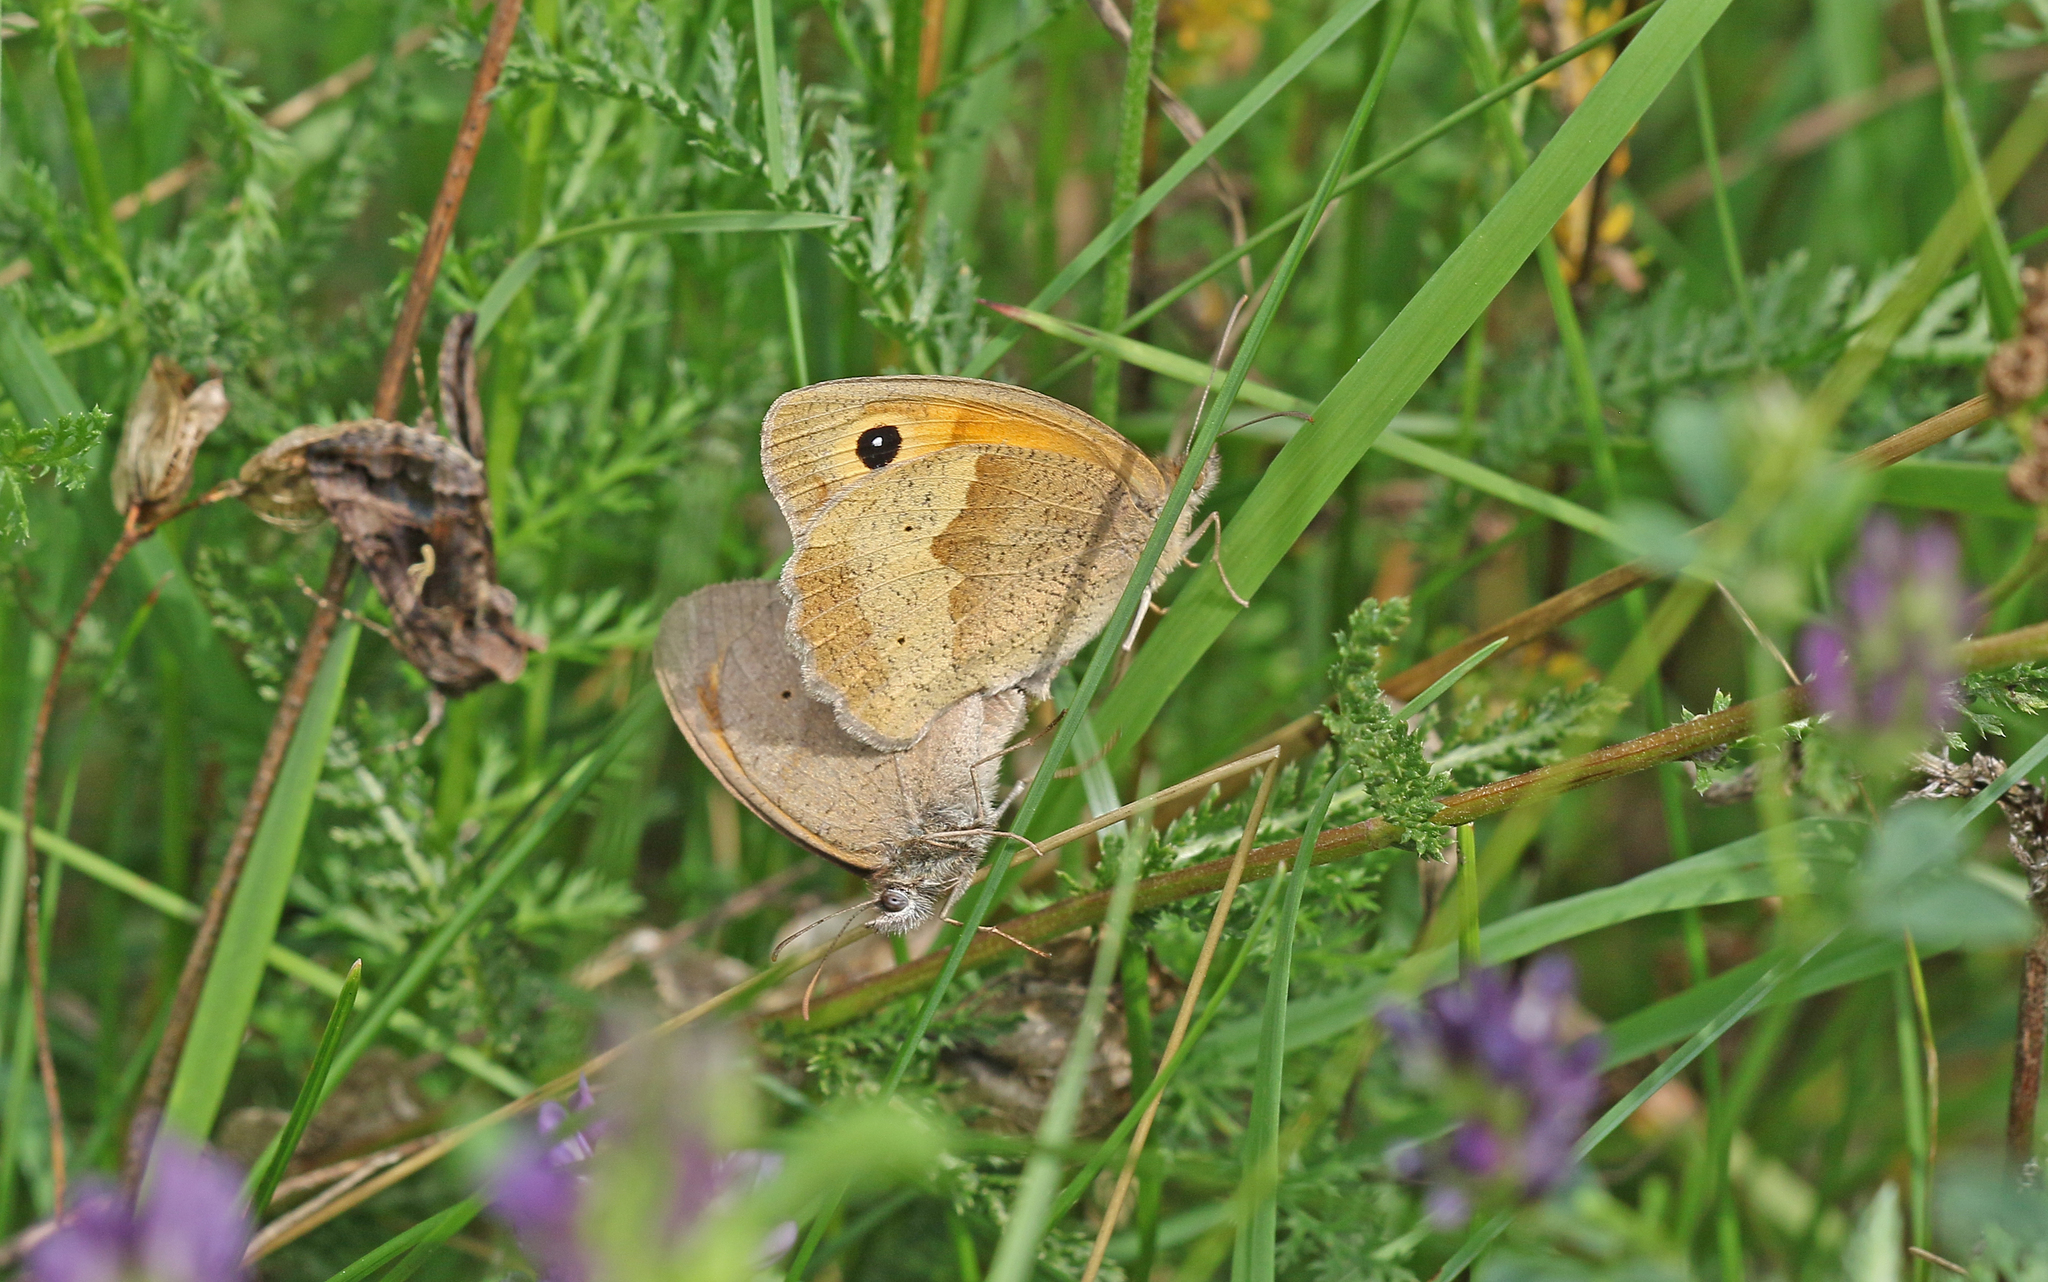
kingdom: Animalia
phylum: Arthropoda
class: Insecta
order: Lepidoptera
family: Nymphalidae
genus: Maniola
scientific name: Maniola jurtina
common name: Meadow brown
